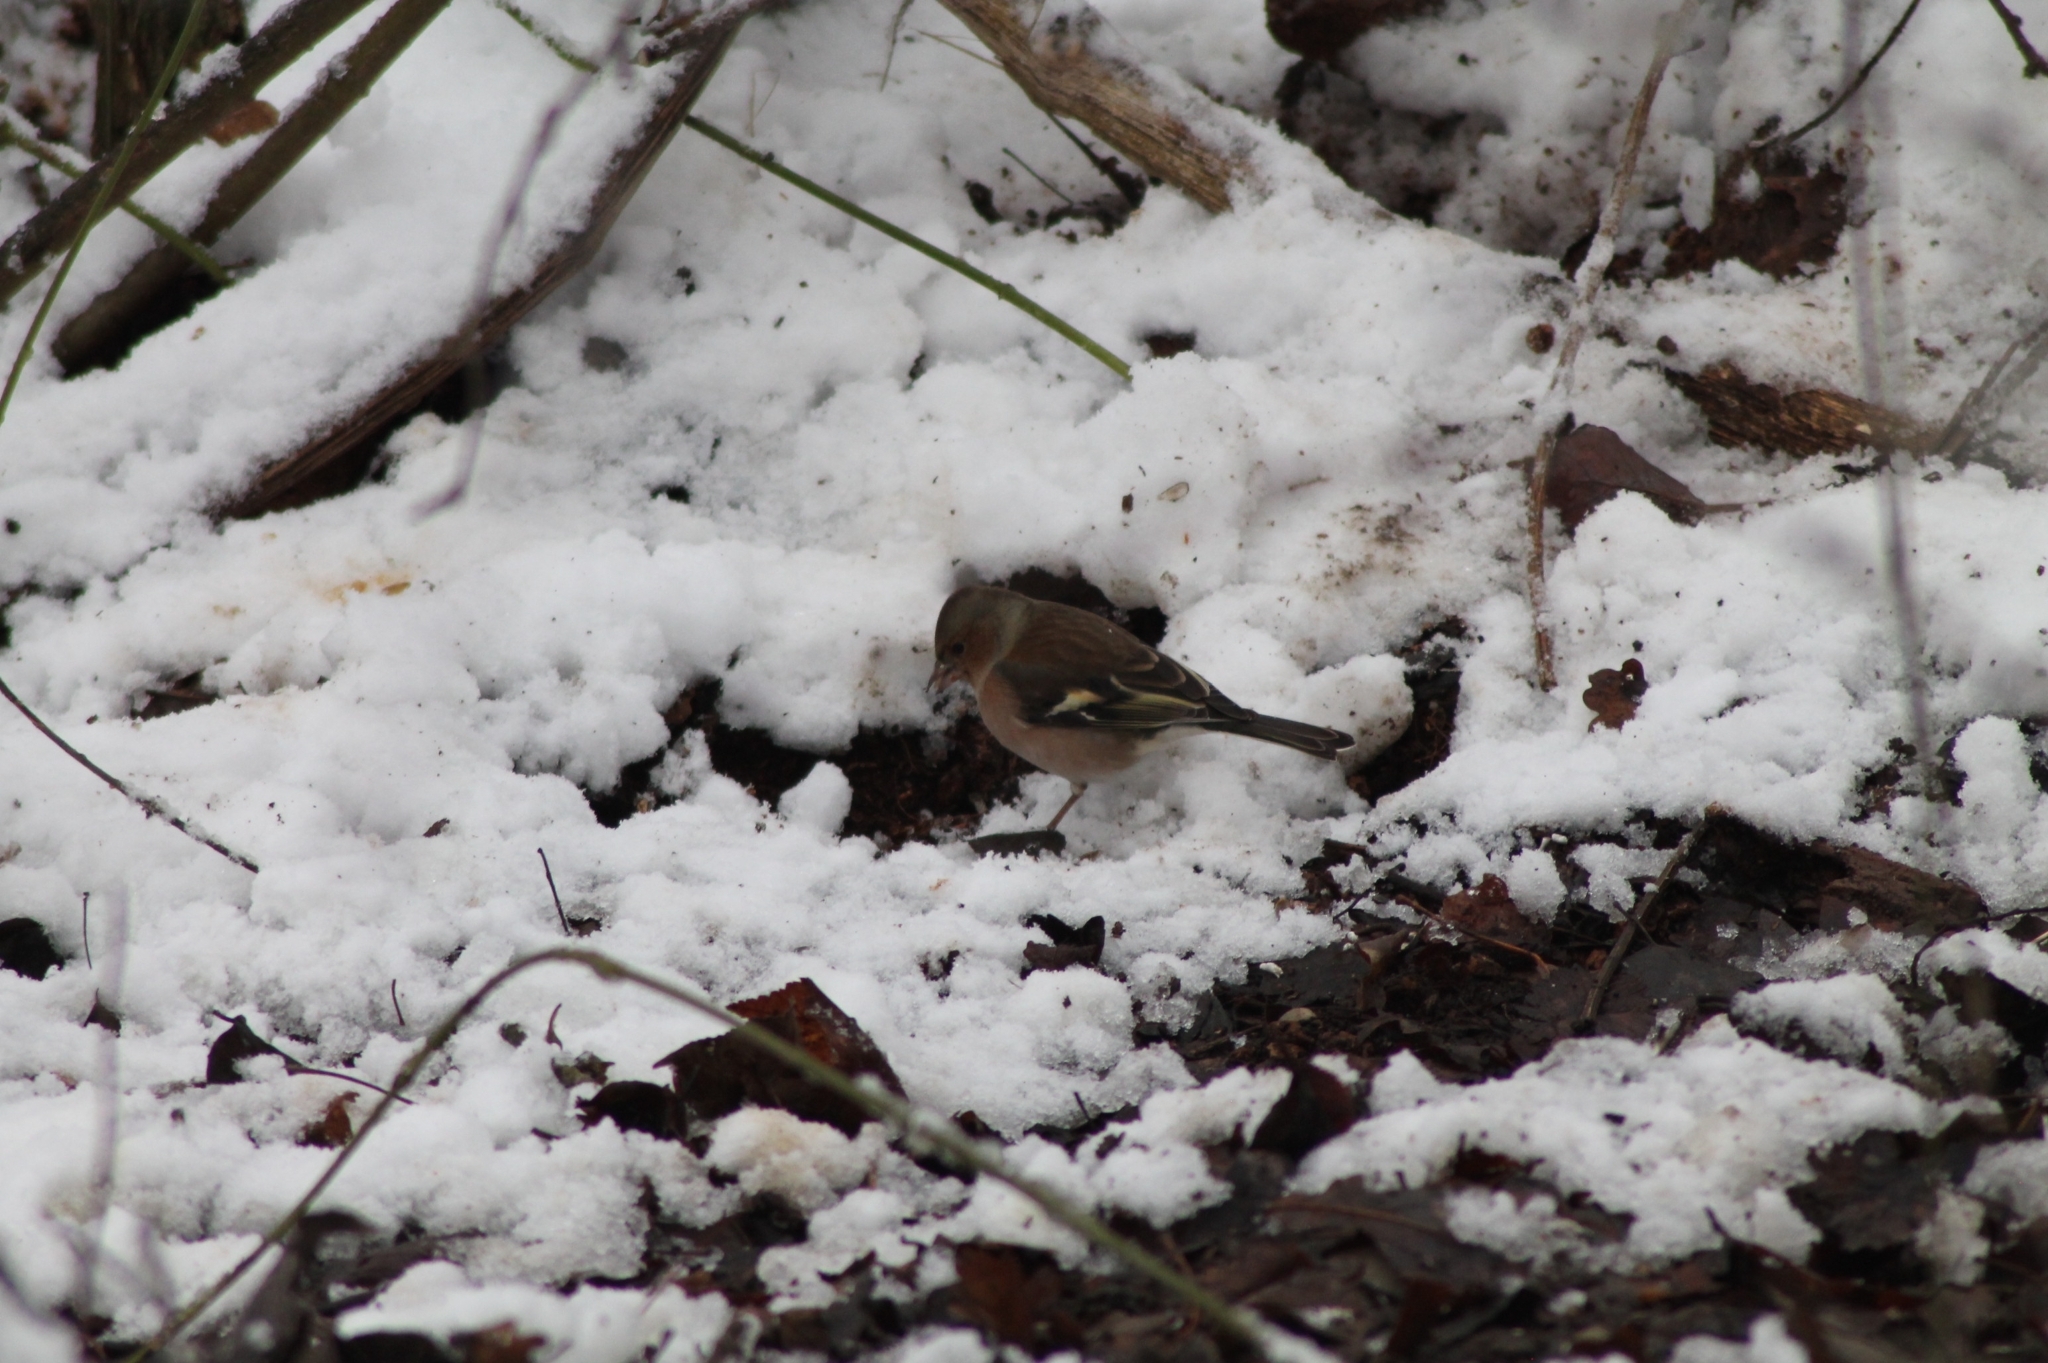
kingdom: Animalia
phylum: Chordata
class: Aves
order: Passeriformes
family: Fringillidae
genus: Fringilla
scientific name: Fringilla coelebs
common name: Common chaffinch
